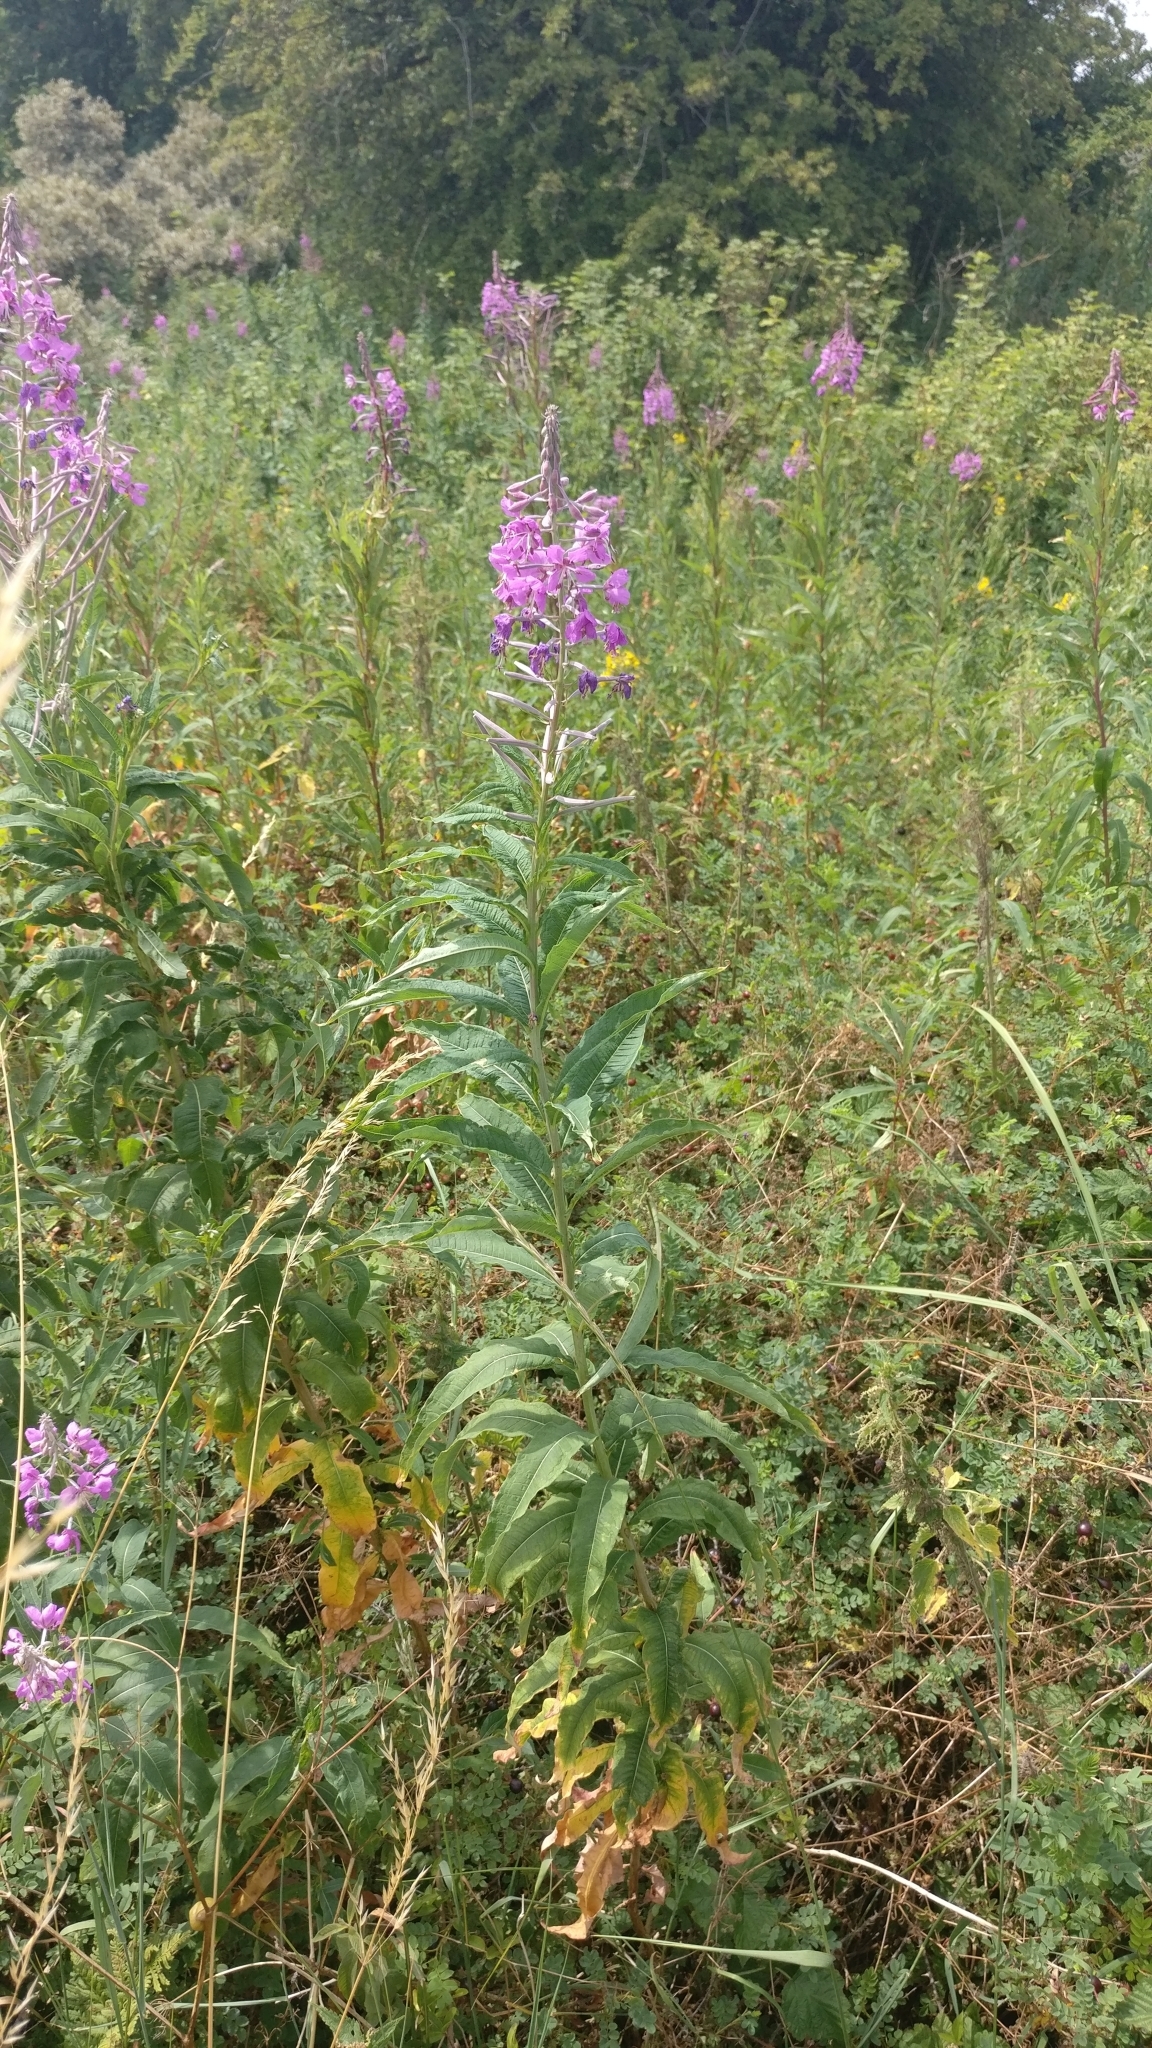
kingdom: Plantae
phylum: Tracheophyta
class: Magnoliopsida
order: Myrtales
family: Onagraceae
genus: Chamaenerion
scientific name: Chamaenerion angustifolium
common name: Fireweed
